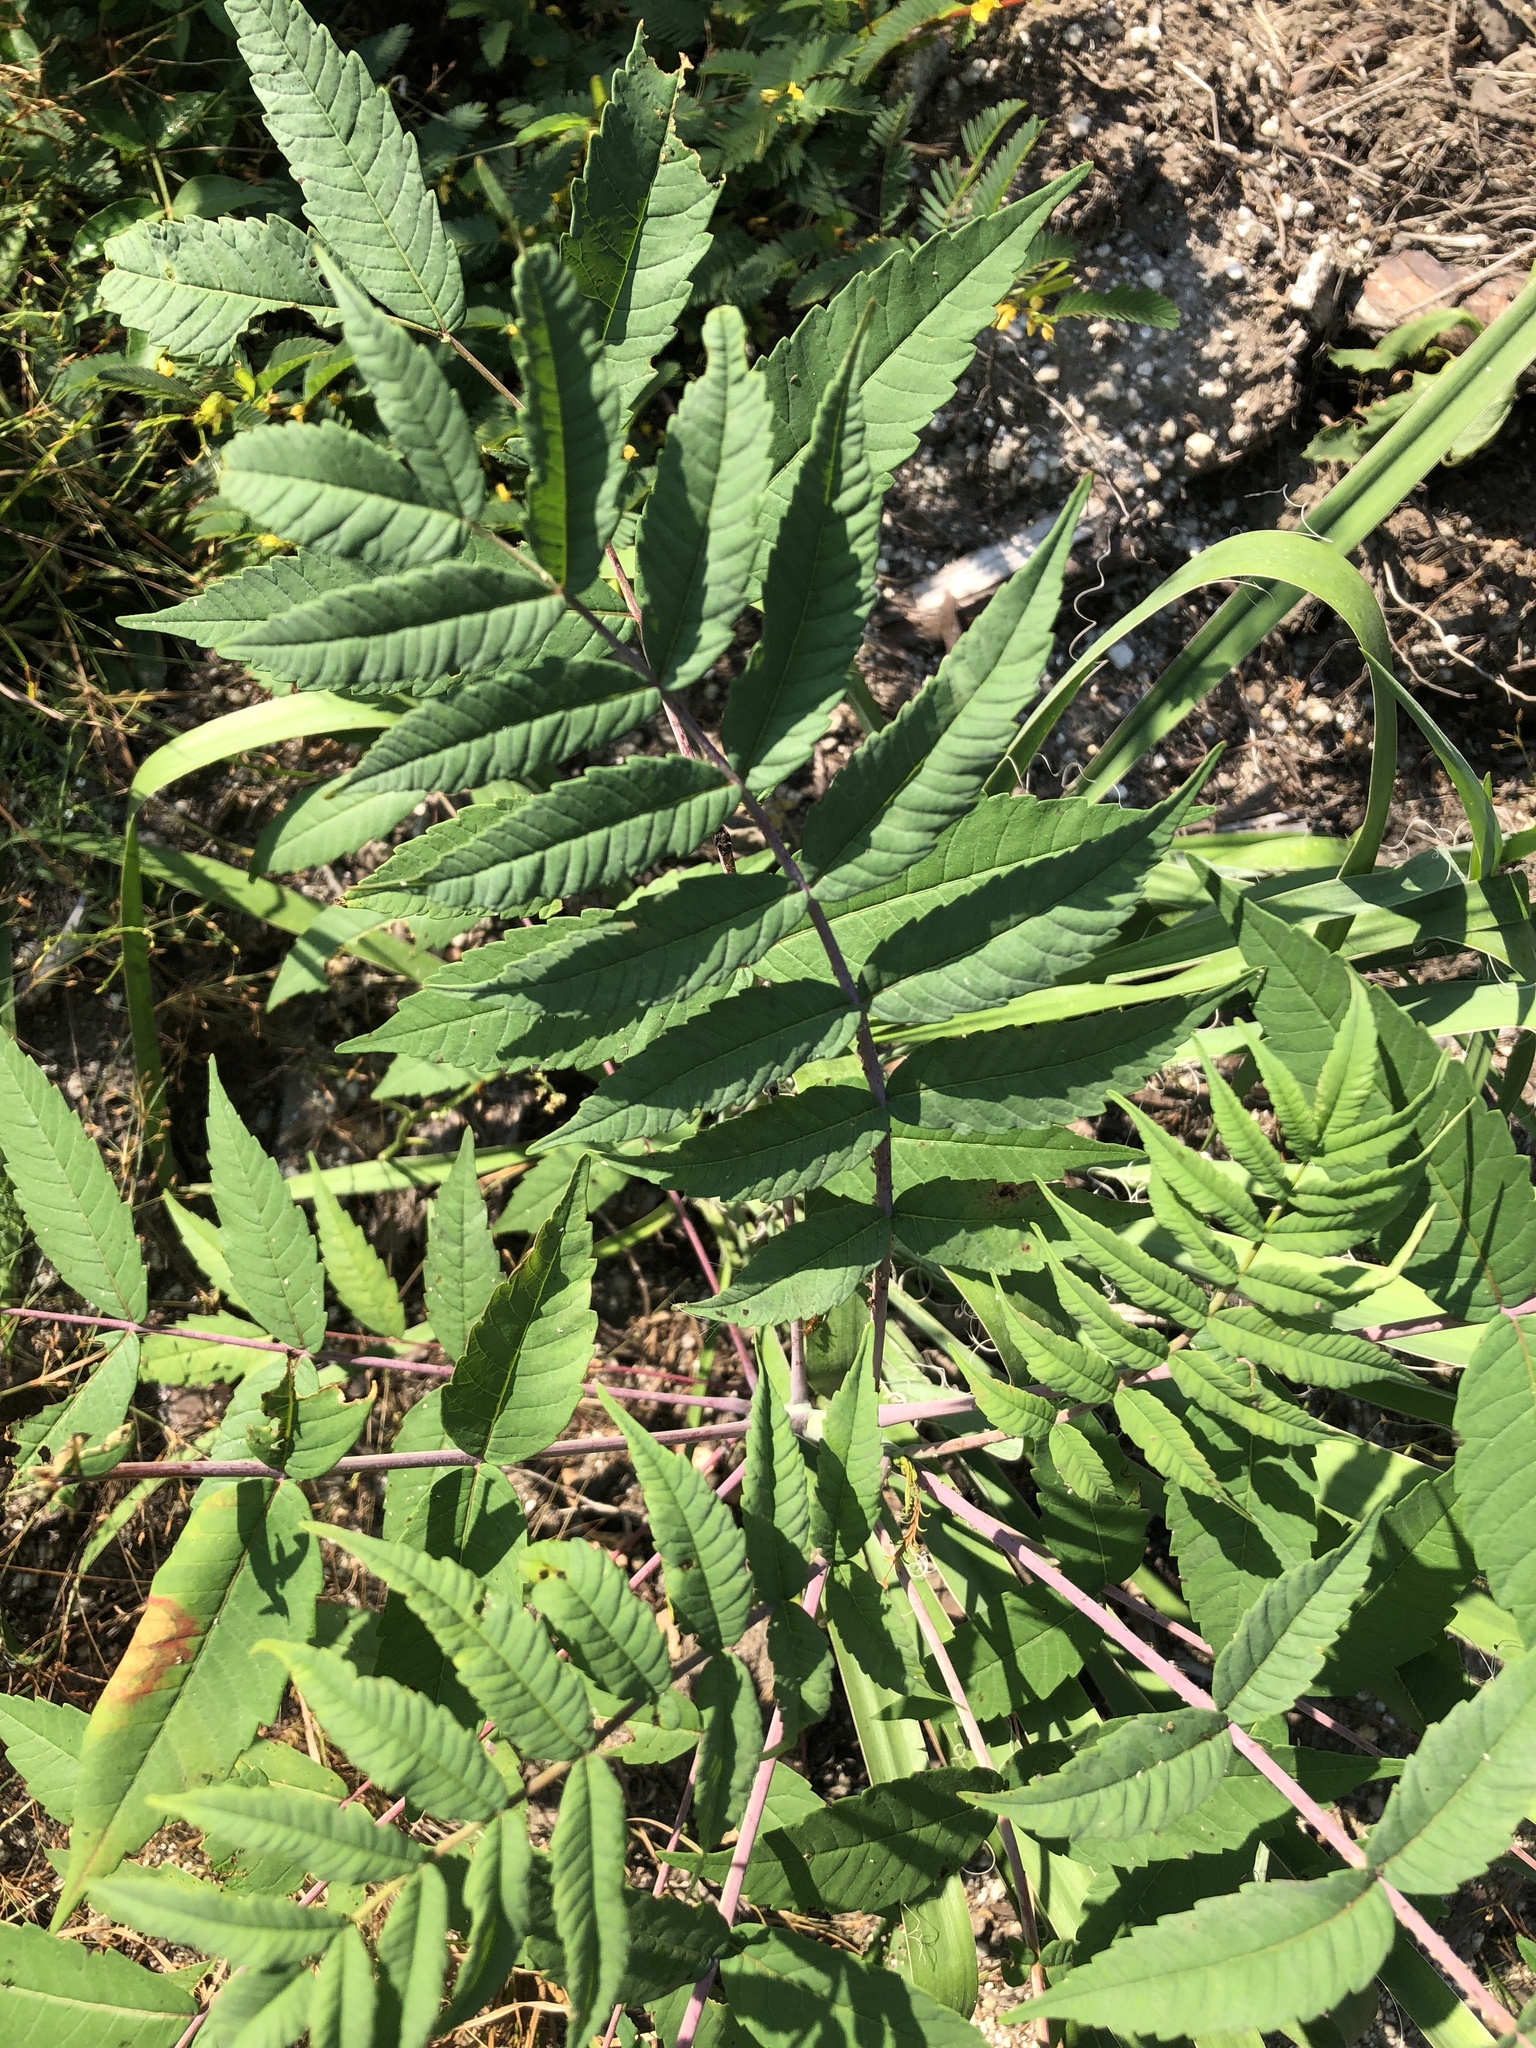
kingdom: Plantae
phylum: Tracheophyta
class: Magnoliopsida
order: Sapindales
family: Anacardiaceae
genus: Rhus
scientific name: Rhus glabra
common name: Scarlet sumac
